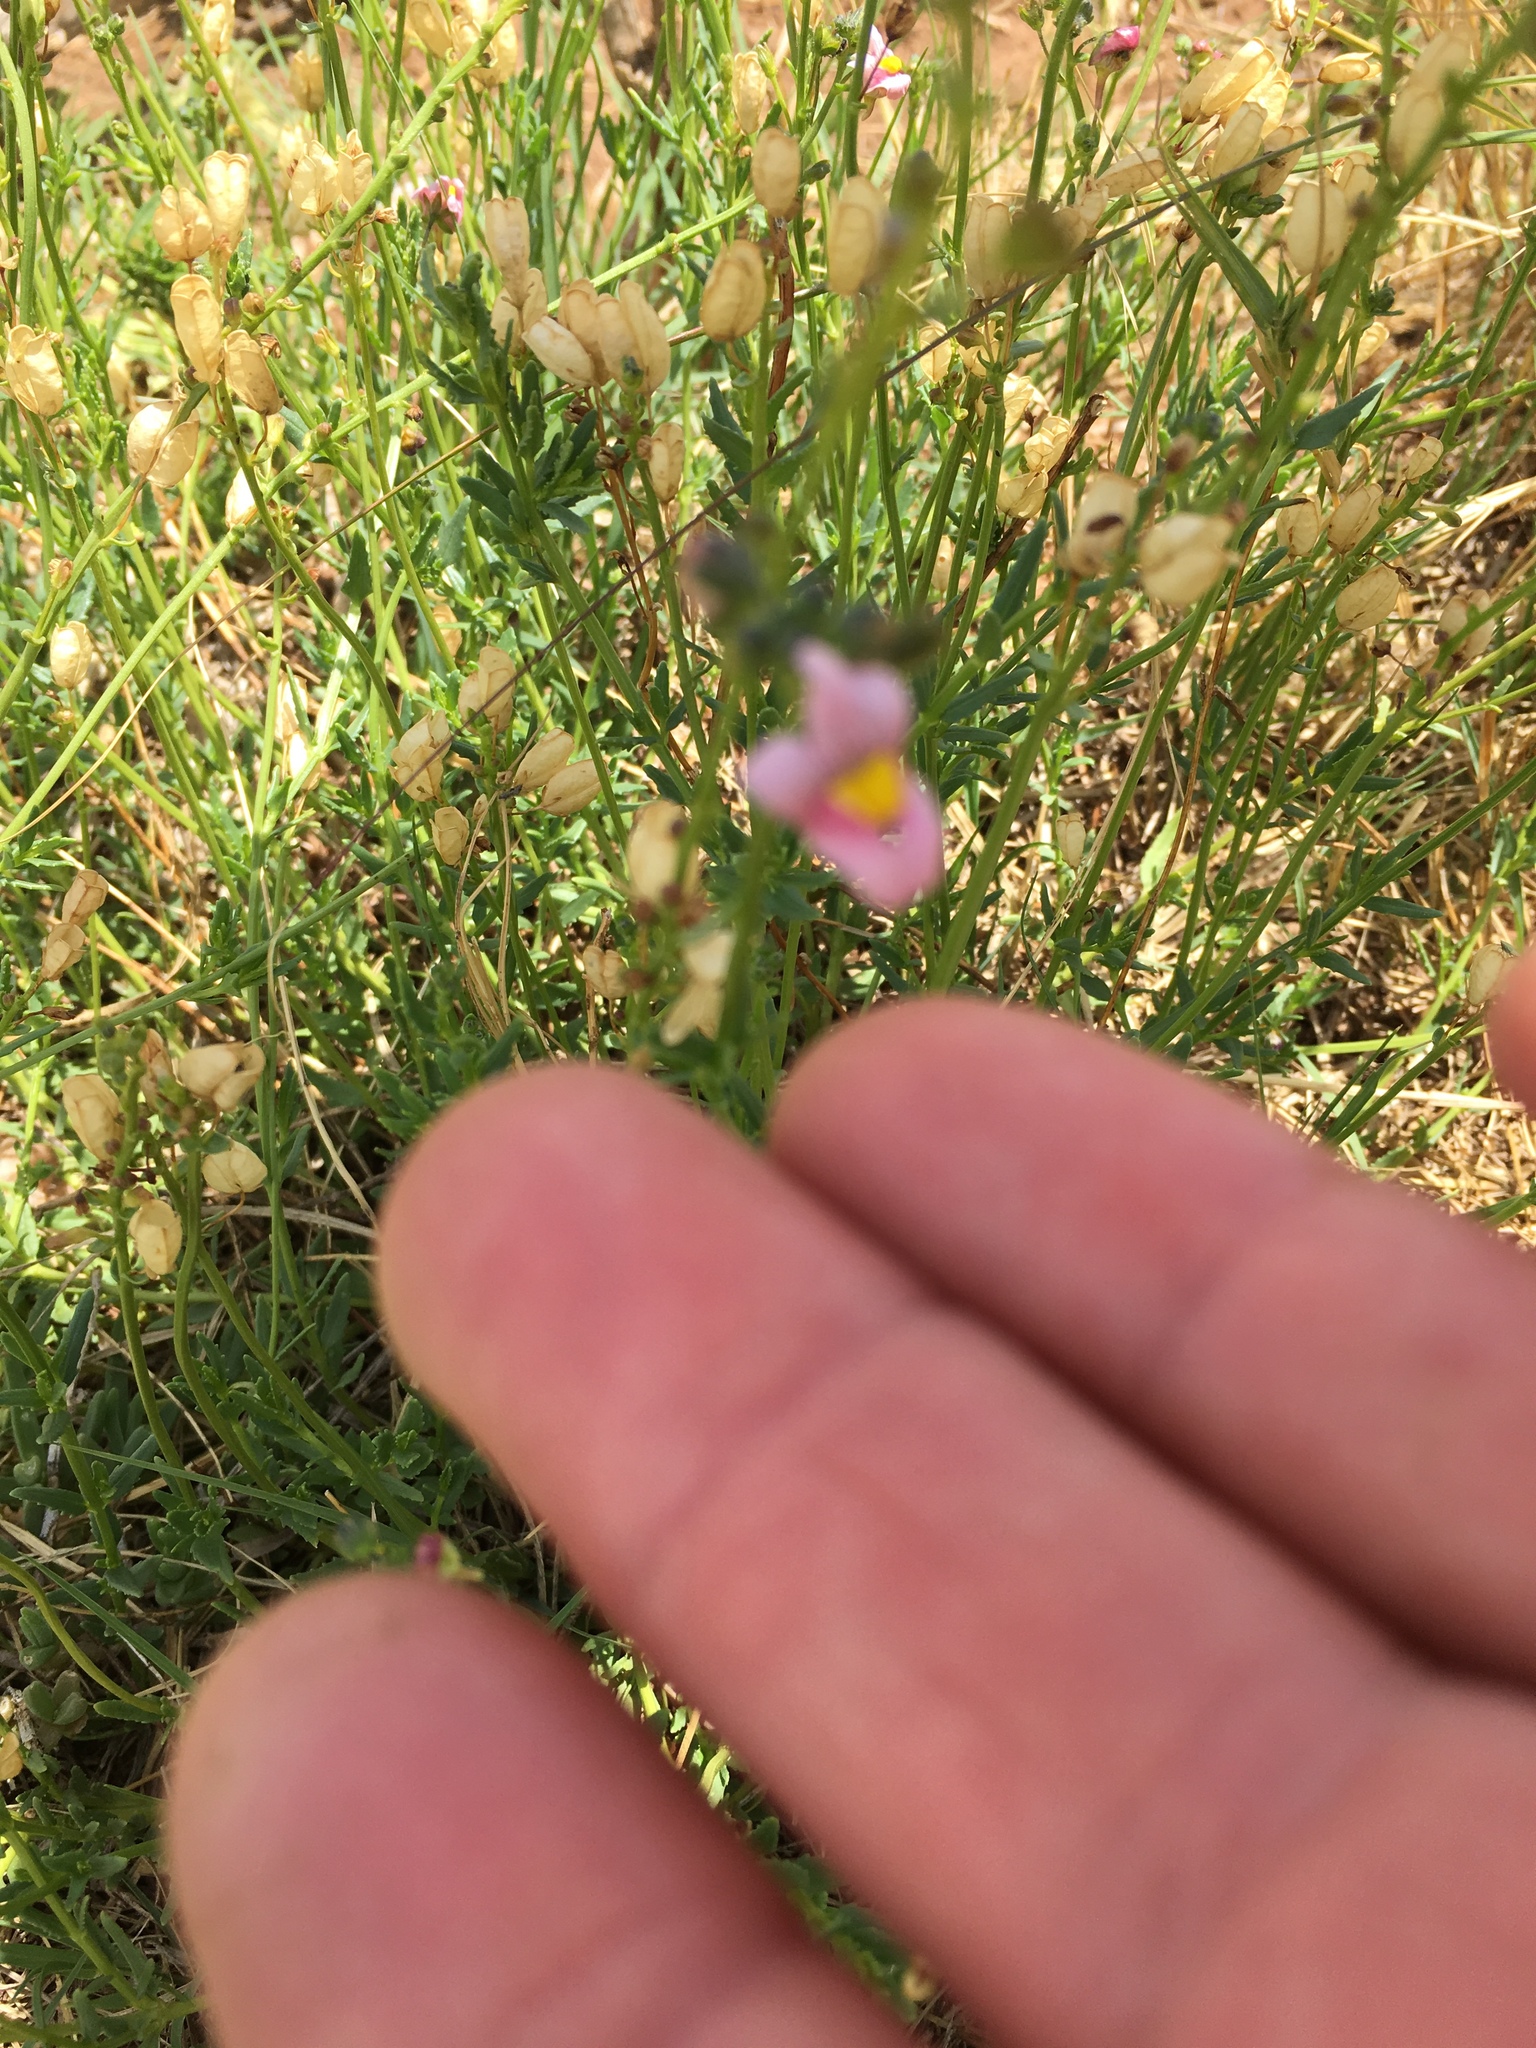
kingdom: Plantae
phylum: Tracheophyta
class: Magnoliopsida
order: Lamiales
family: Scrophulariaceae
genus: Nemesia
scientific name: Nemesia fruticans
